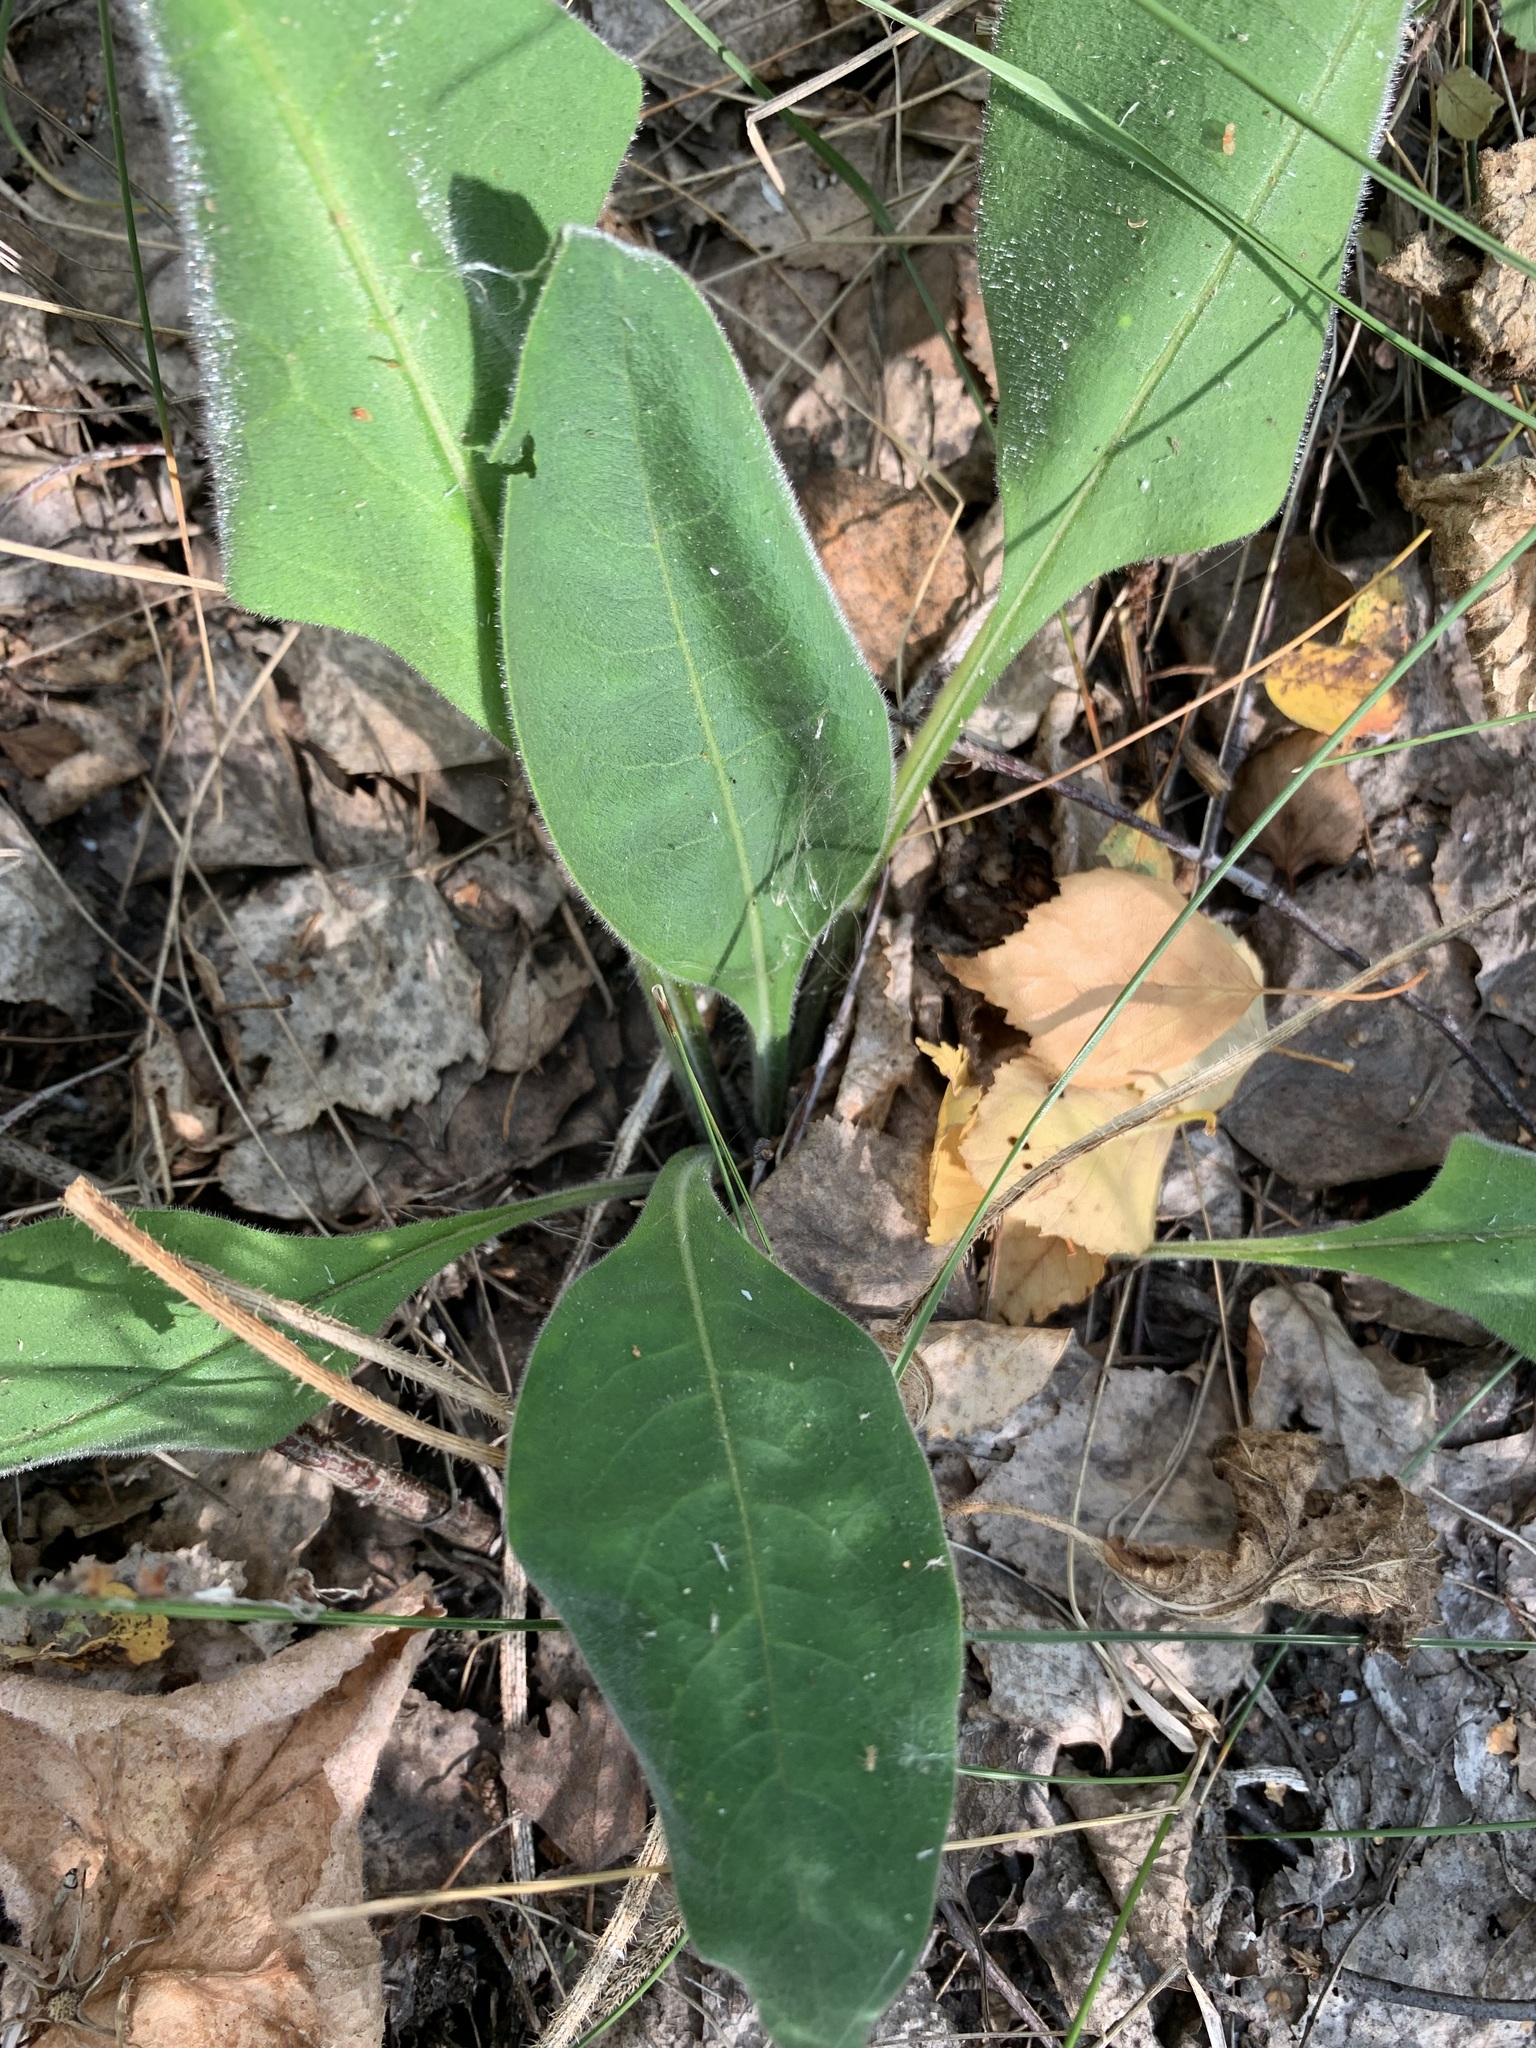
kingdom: Plantae
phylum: Tracheophyta
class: Magnoliopsida
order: Boraginales
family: Boraginaceae
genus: Pulmonaria
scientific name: Pulmonaria mollis
